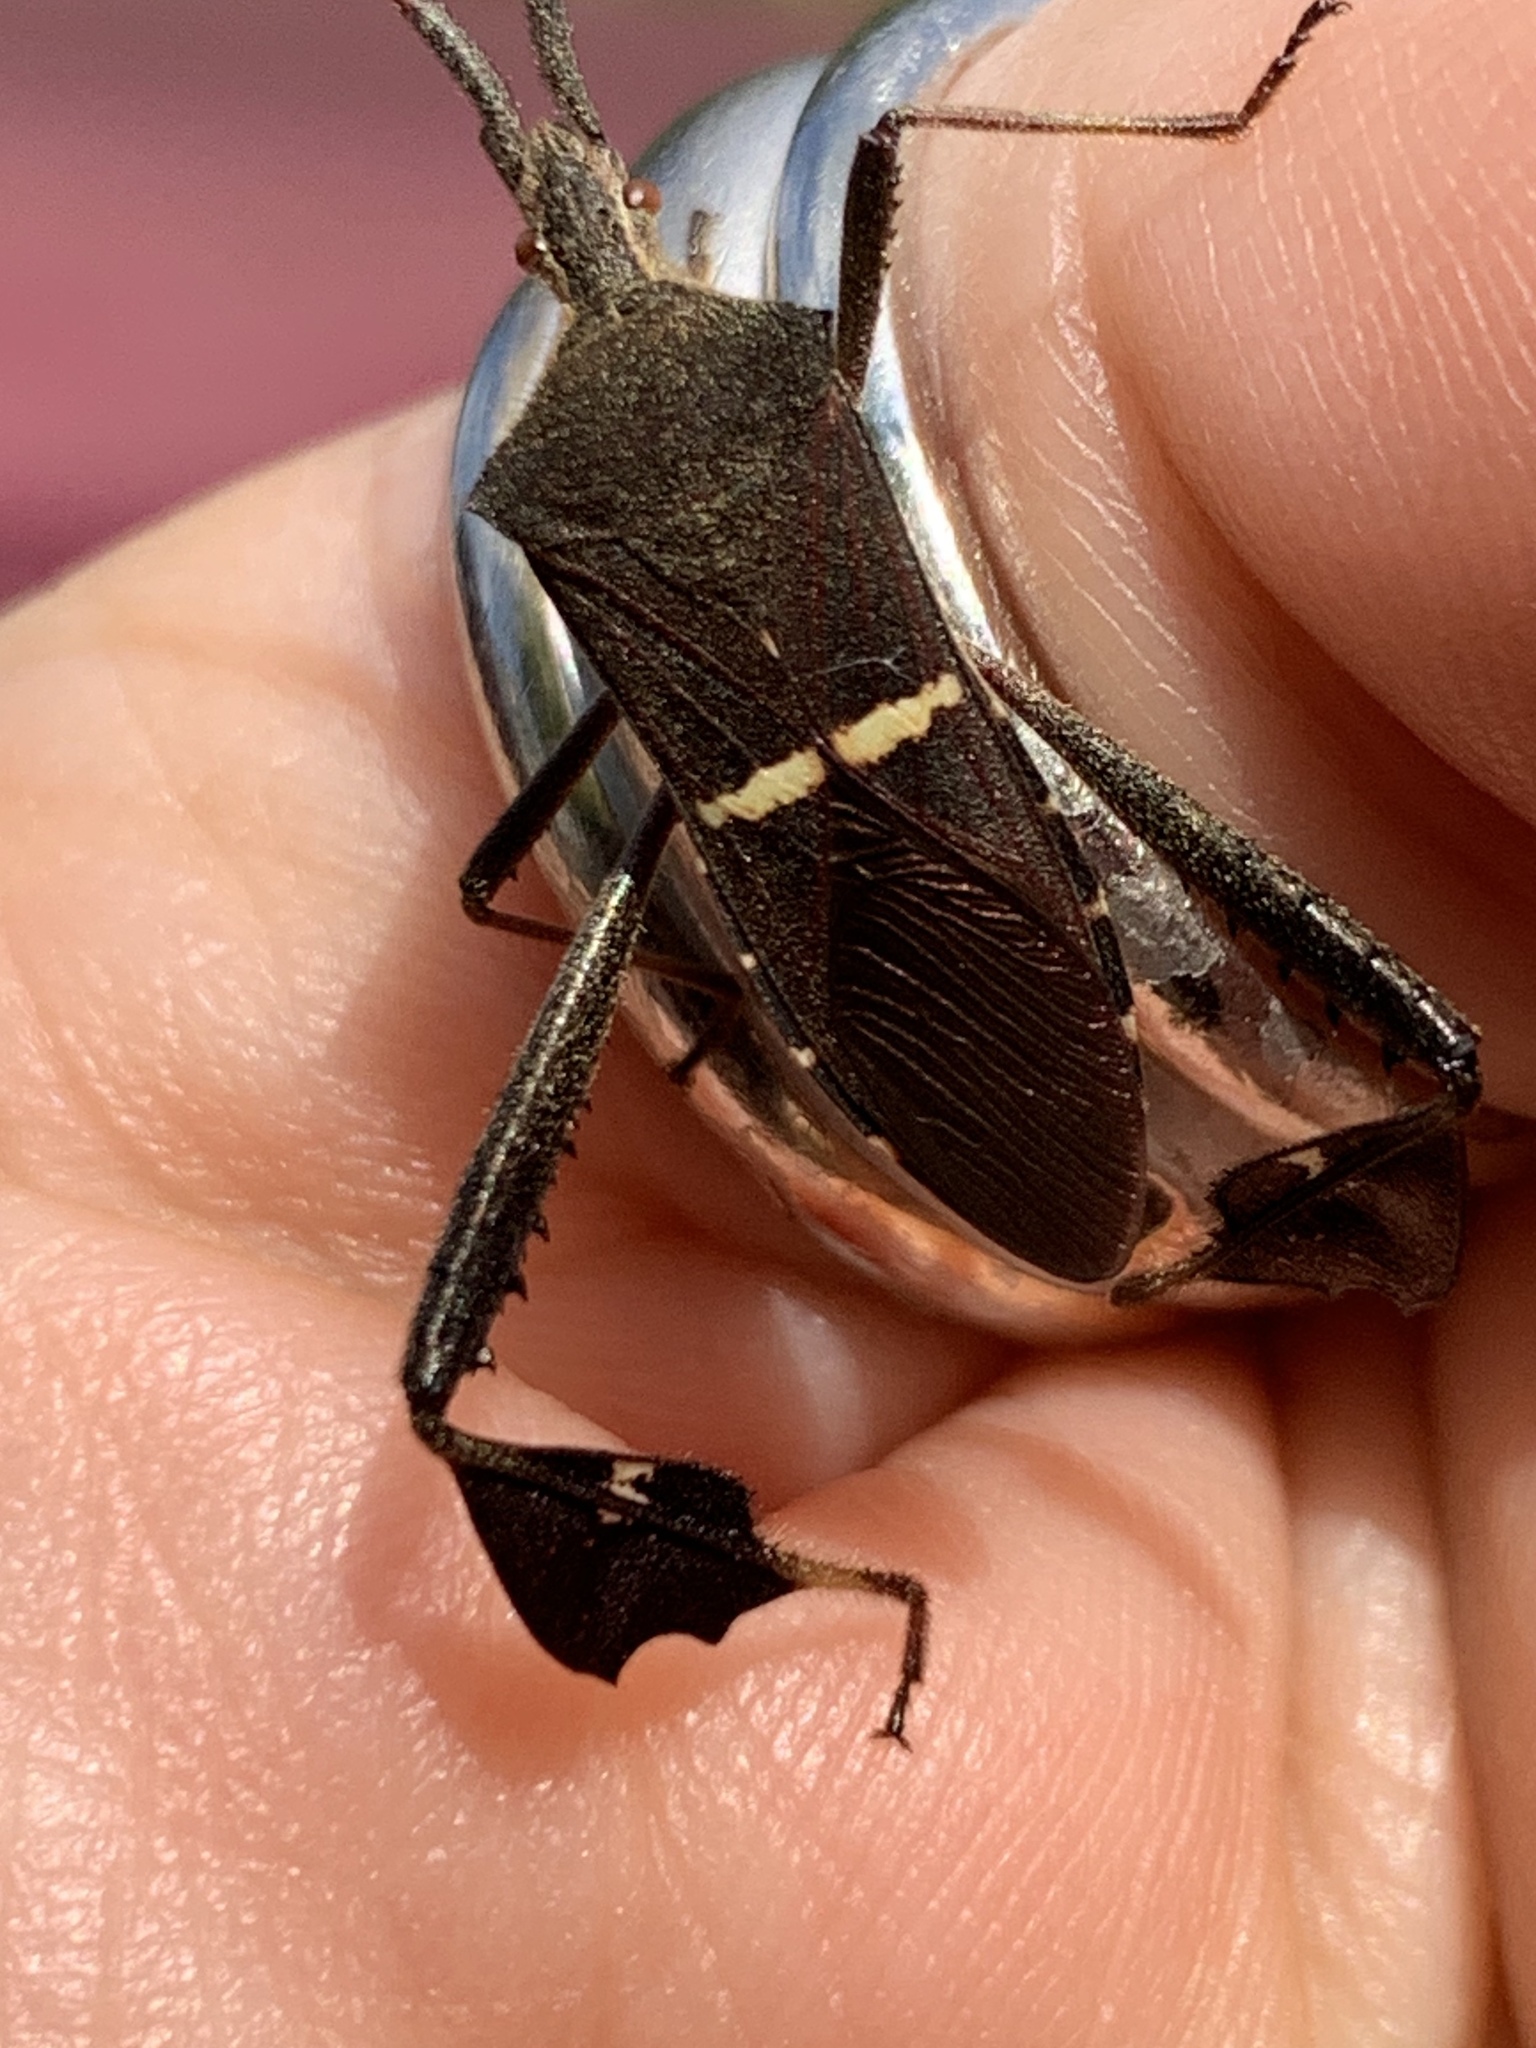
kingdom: Animalia
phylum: Arthropoda
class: Insecta
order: Hemiptera
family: Coreidae
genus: Leptoglossus
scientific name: Leptoglossus phyllopus
